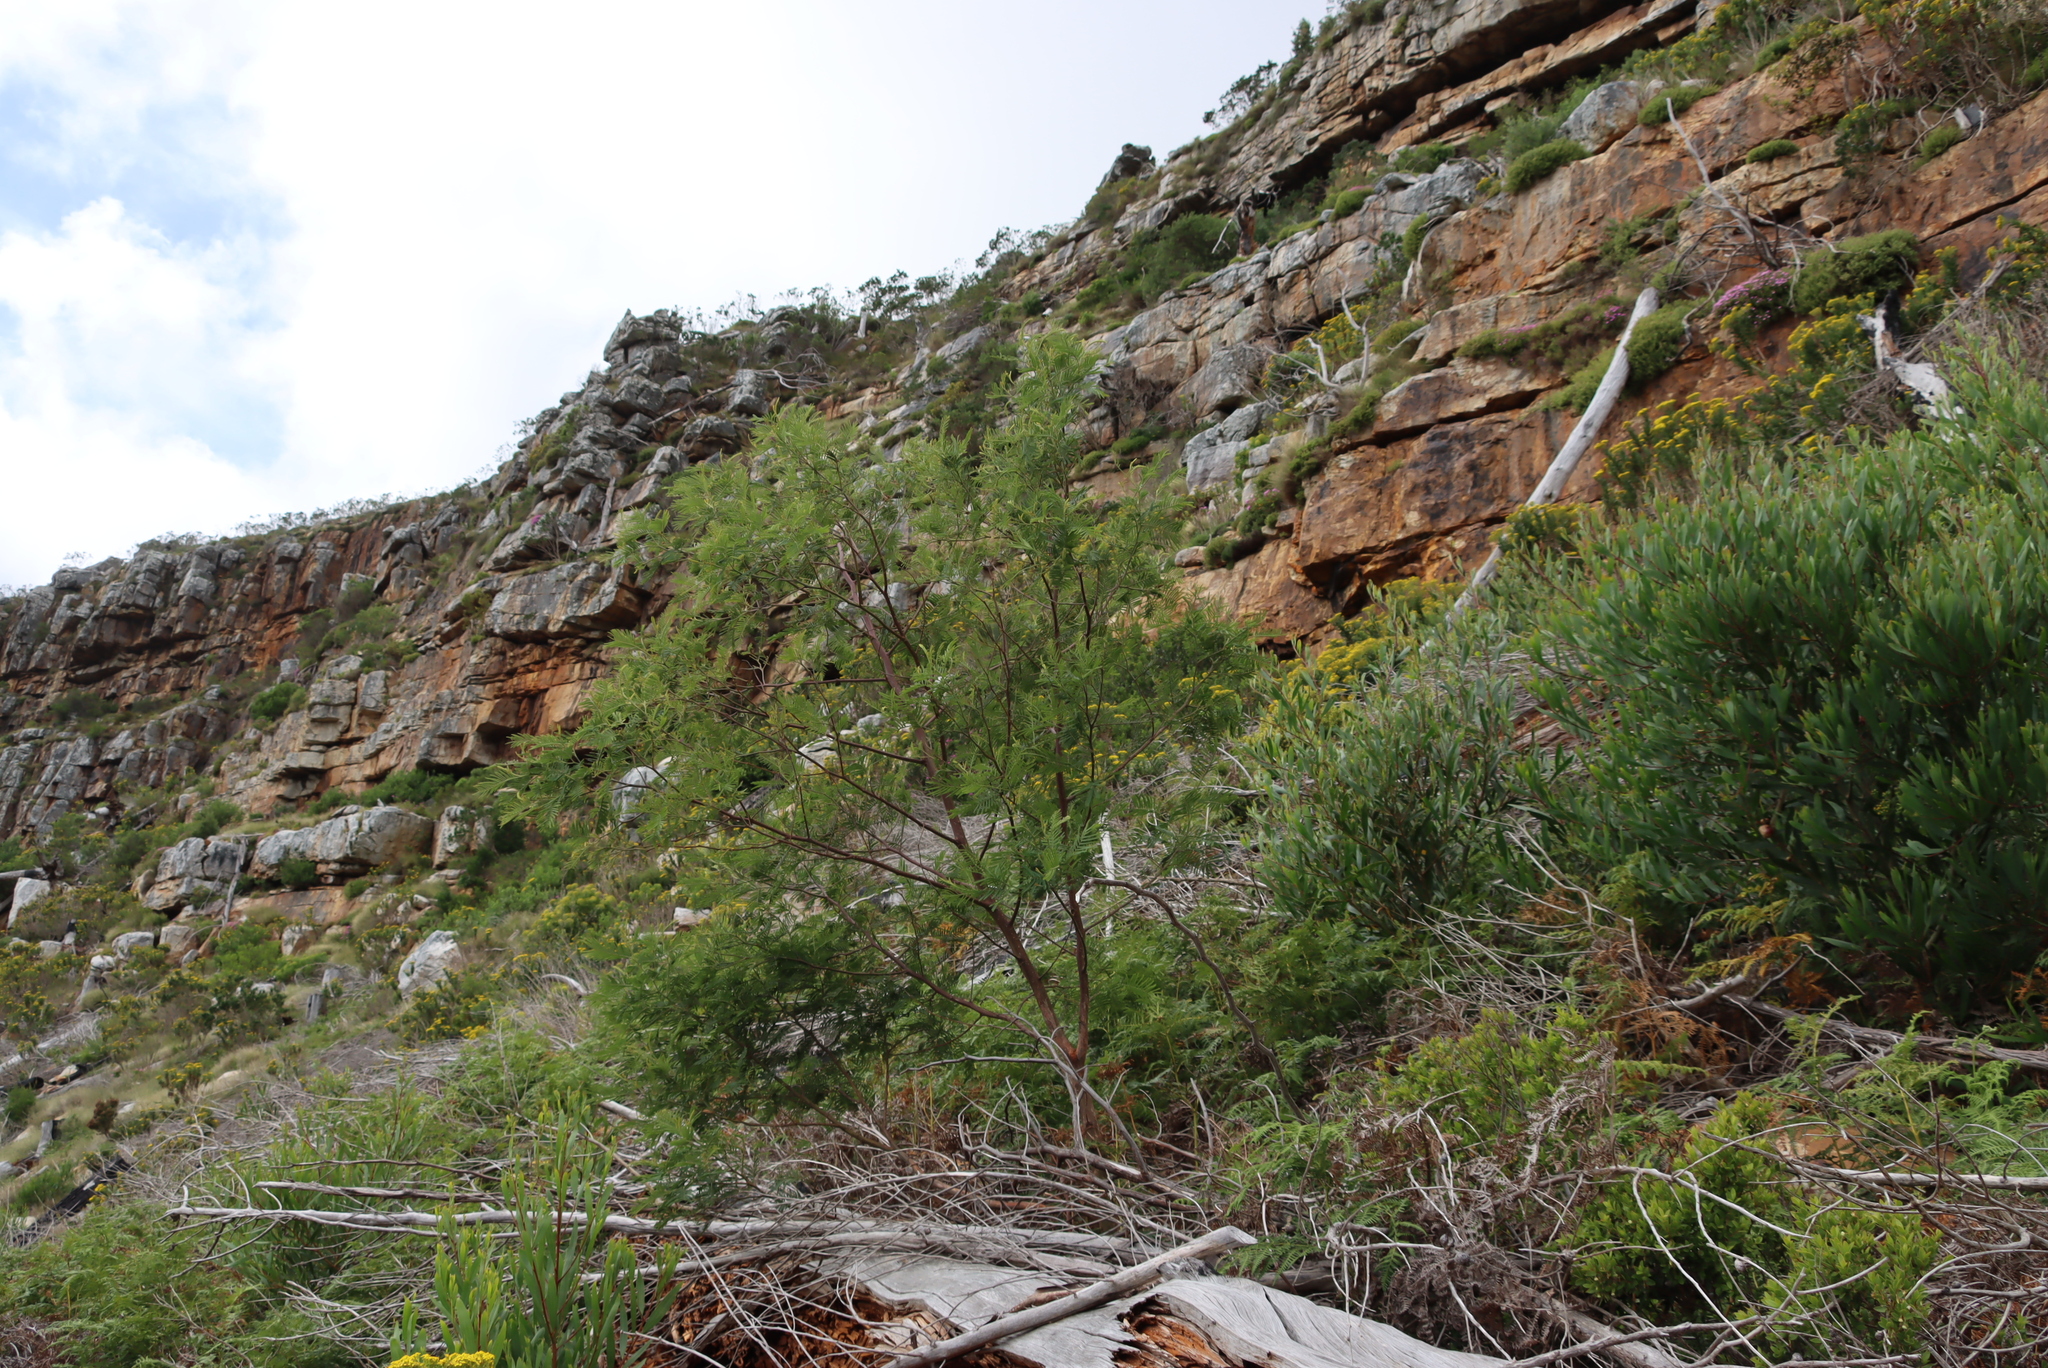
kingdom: Plantae
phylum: Tracheophyta
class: Magnoliopsida
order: Fabales
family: Fabaceae
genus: Acacia
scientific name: Acacia mearnsii
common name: Black wattle
